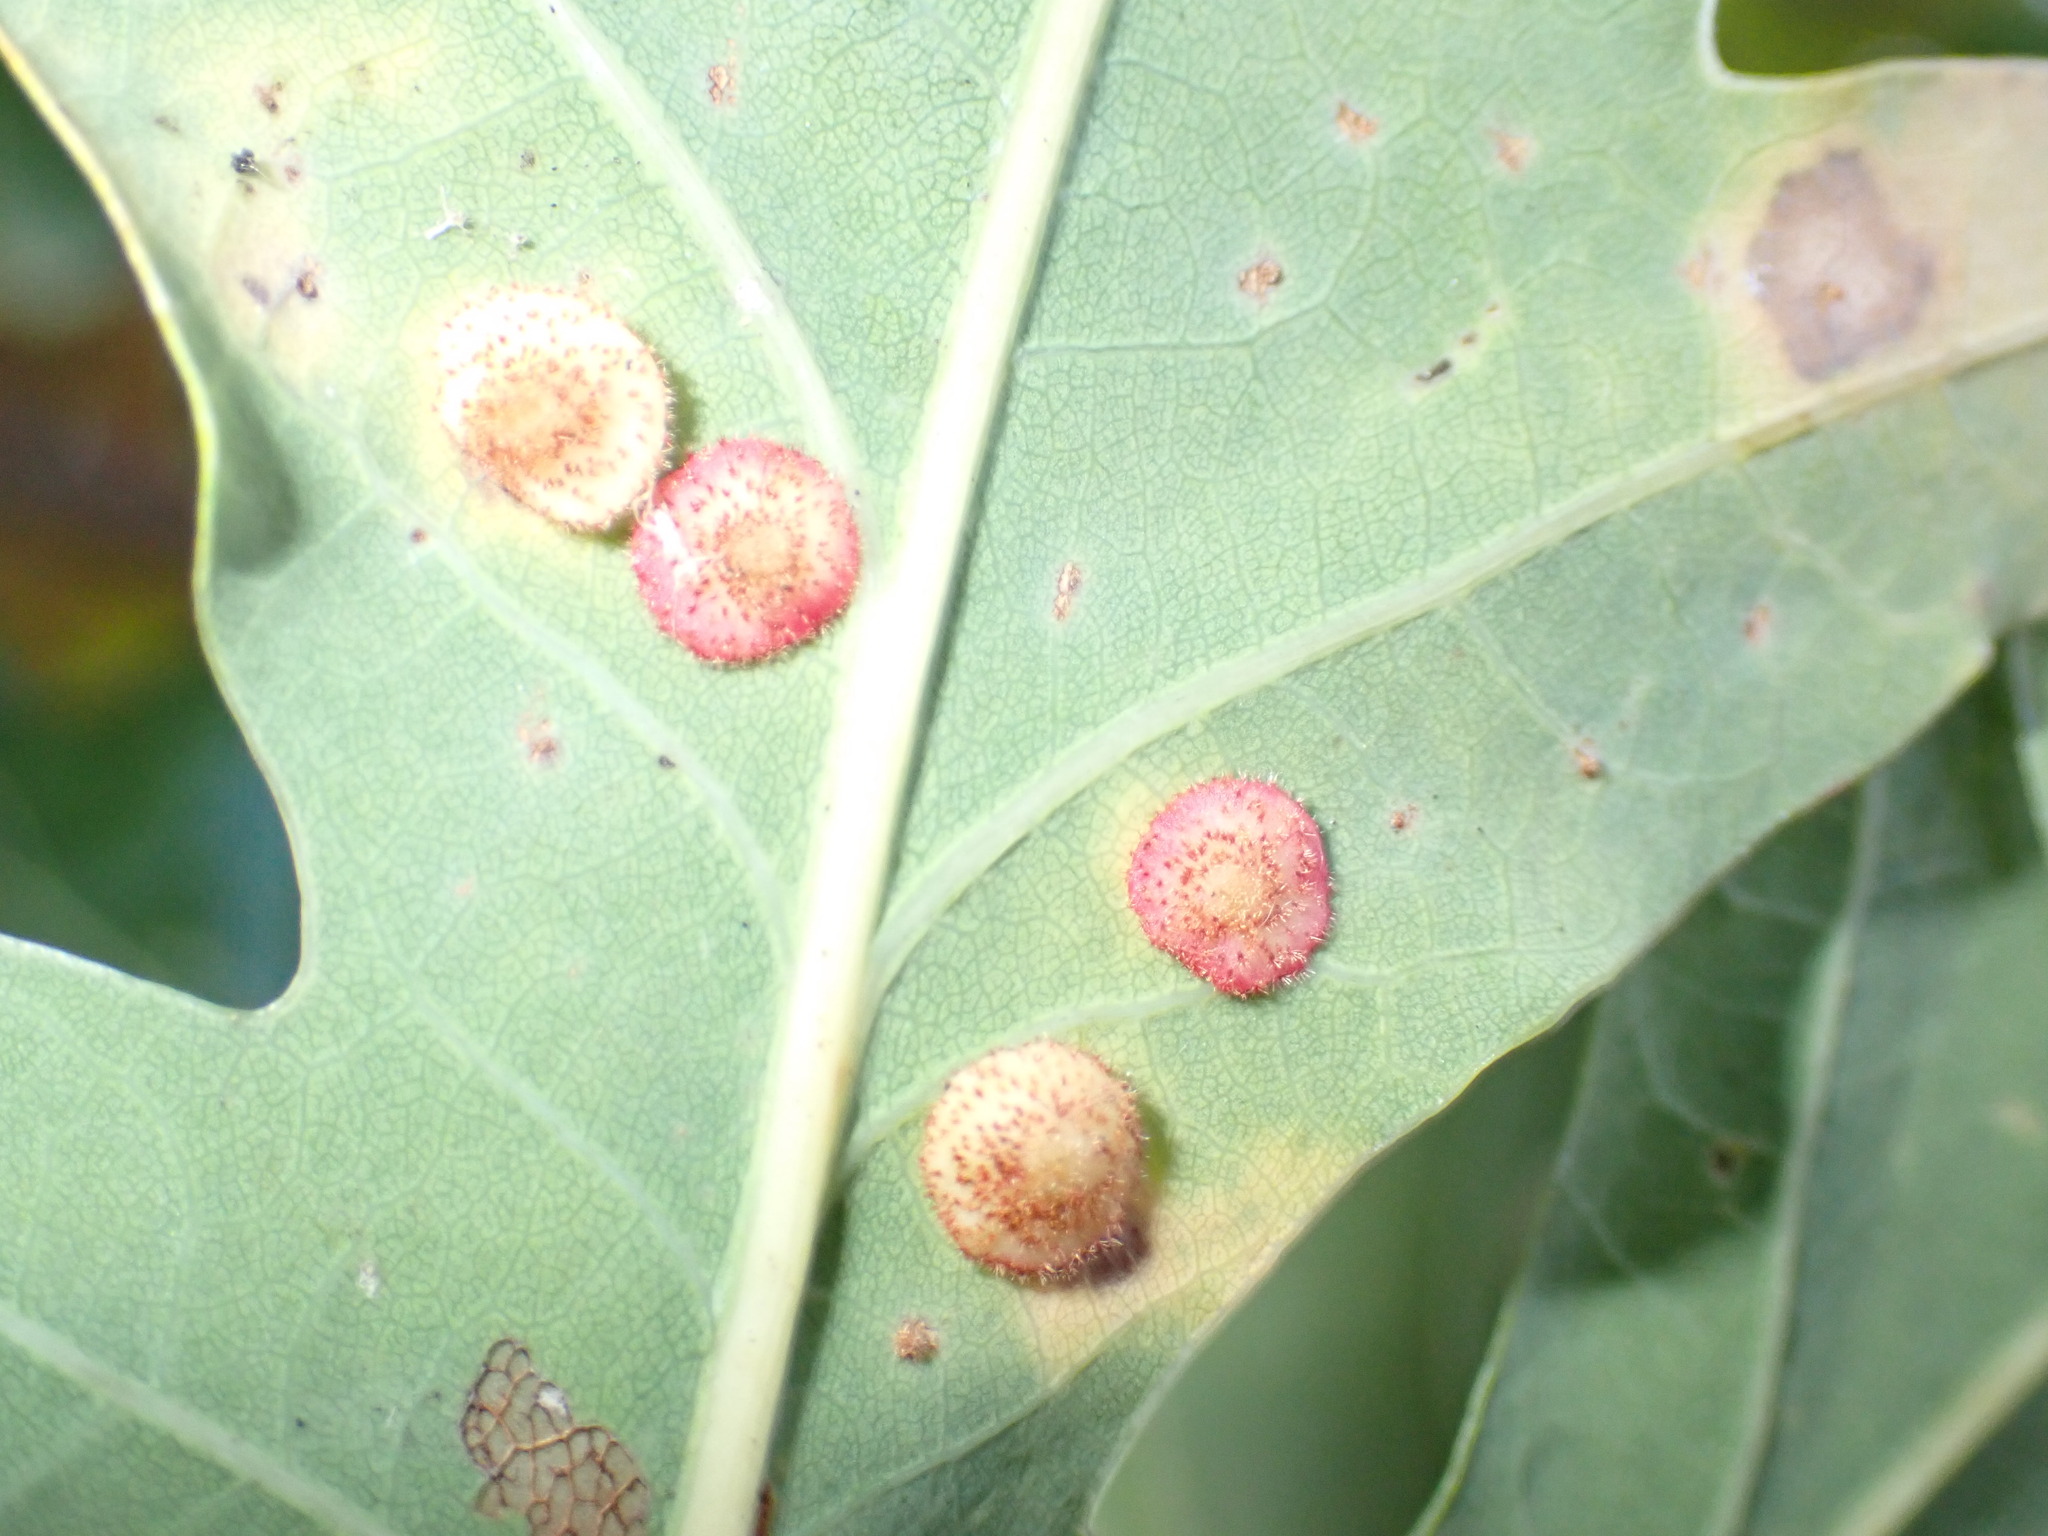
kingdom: Animalia
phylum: Arthropoda
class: Insecta
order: Hymenoptera
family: Cynipidae
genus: Neuroterus
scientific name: Neuroterus quercusbaccarum
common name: Common spangle gall
